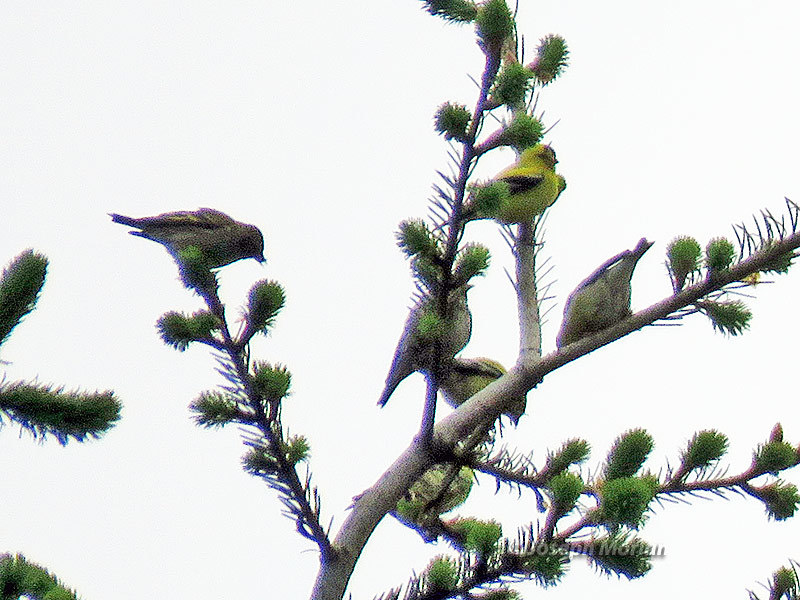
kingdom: Animalia
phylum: Chordata
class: Aves
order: Passeriformes
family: Fringillidae
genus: Spinus
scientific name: Spinus tristis
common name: American goldfinch
